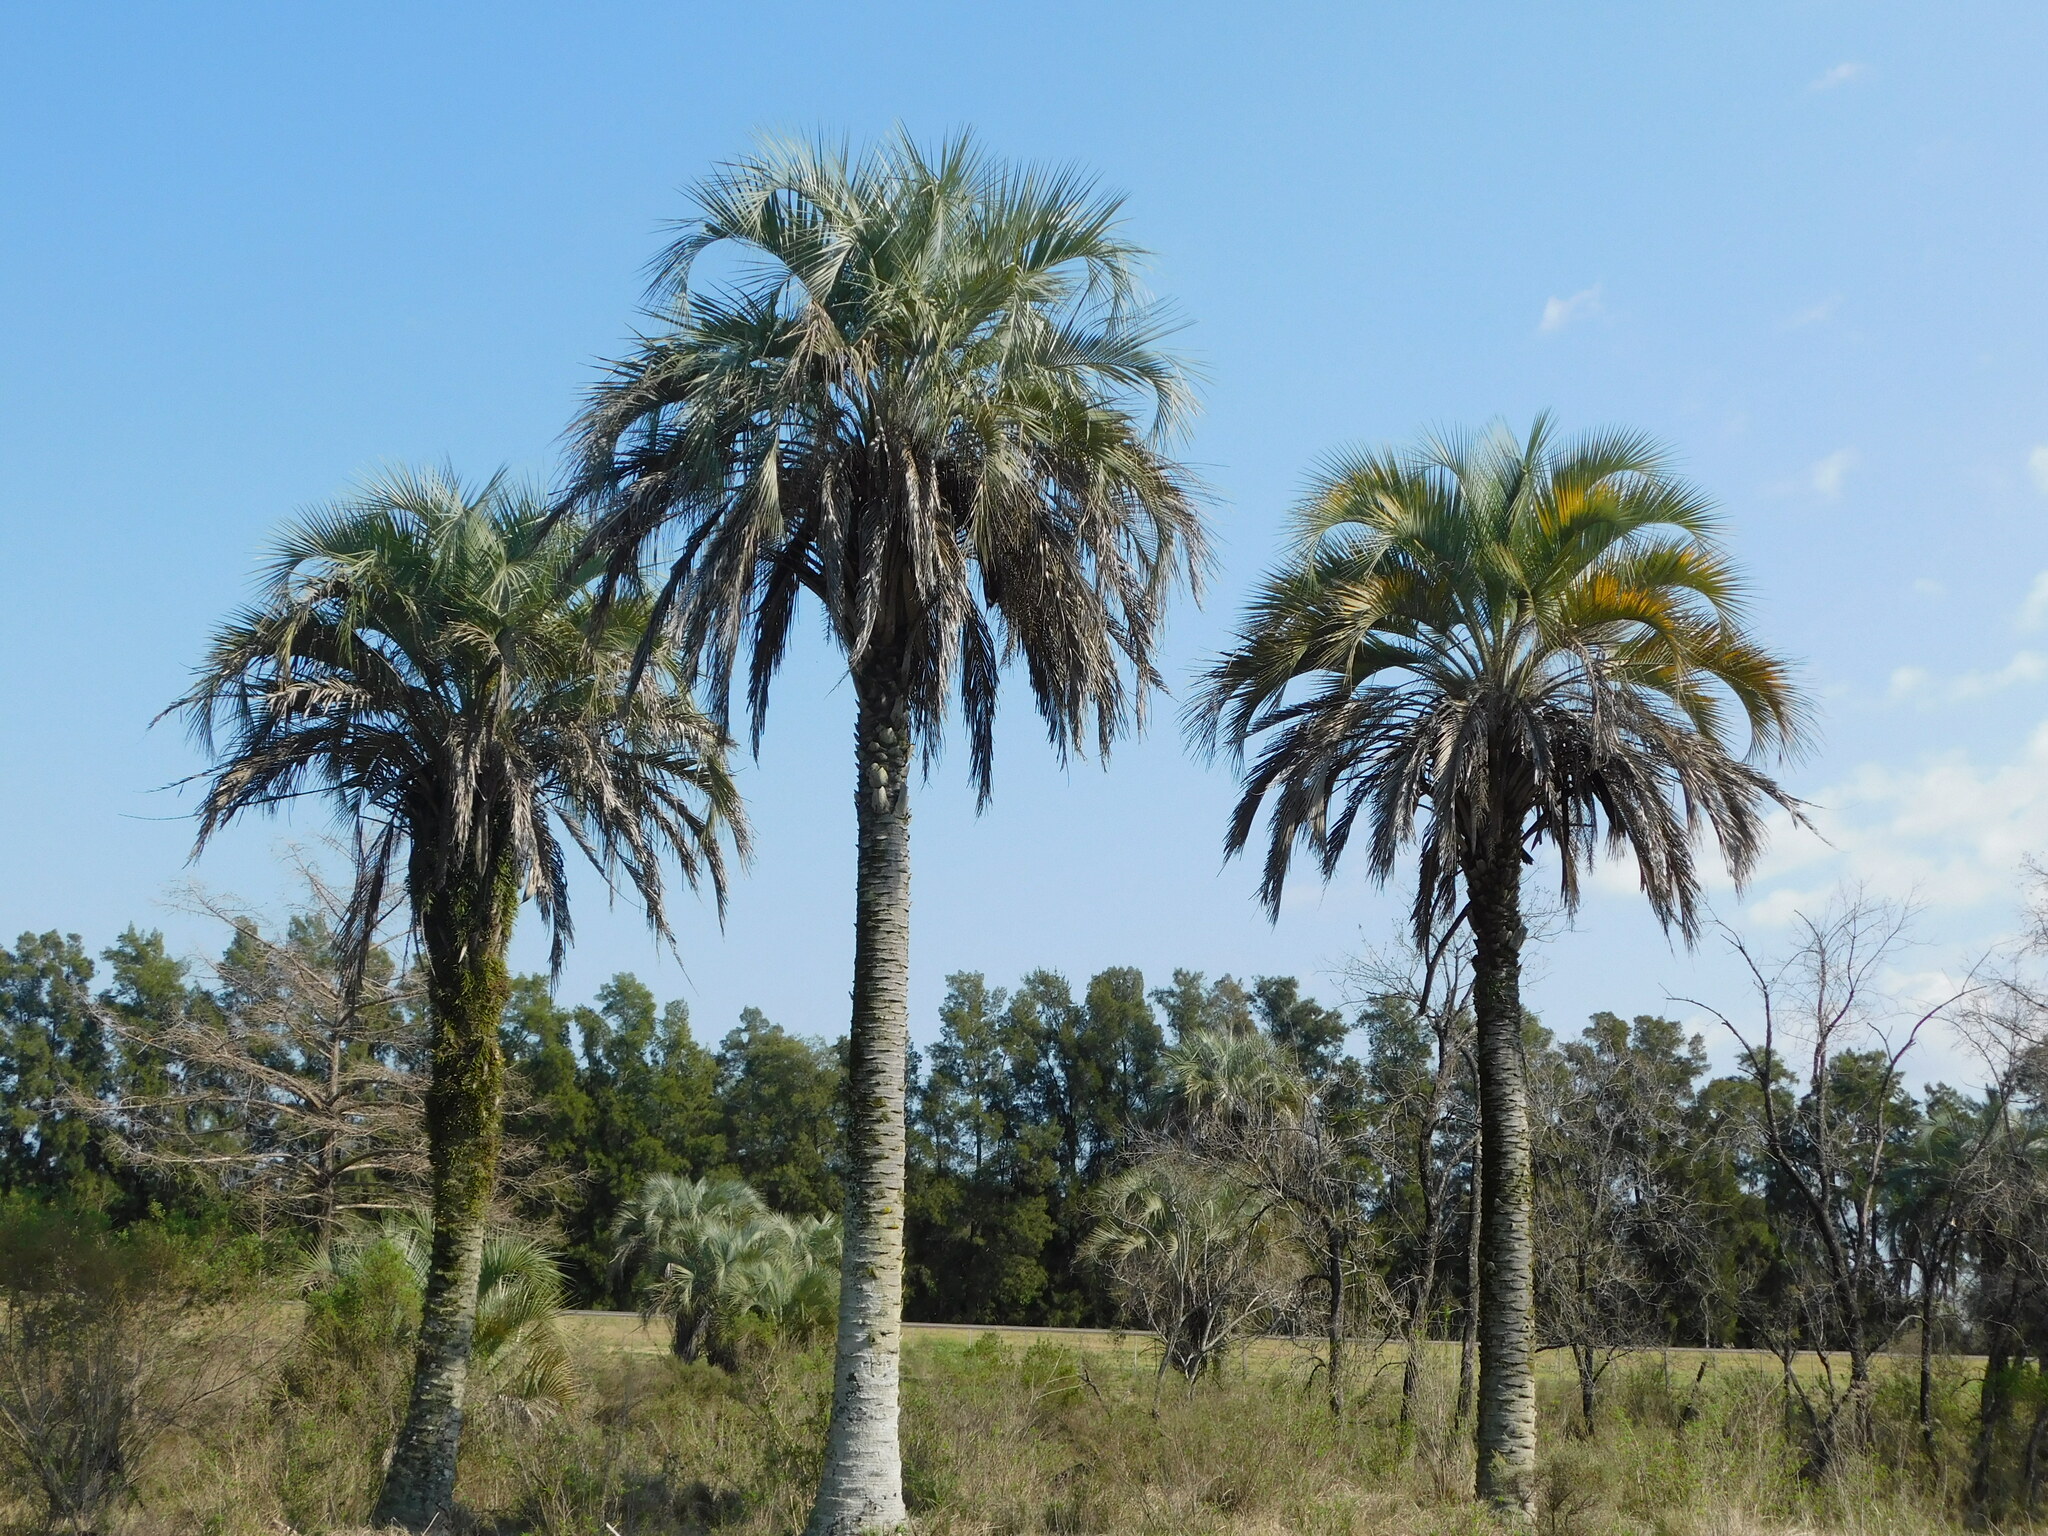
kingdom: Plantae
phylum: Tracheophyta
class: Liliopsida
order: Arecales
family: Arecaceae
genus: Butia
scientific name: Butia yatay
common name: Yatay palm
